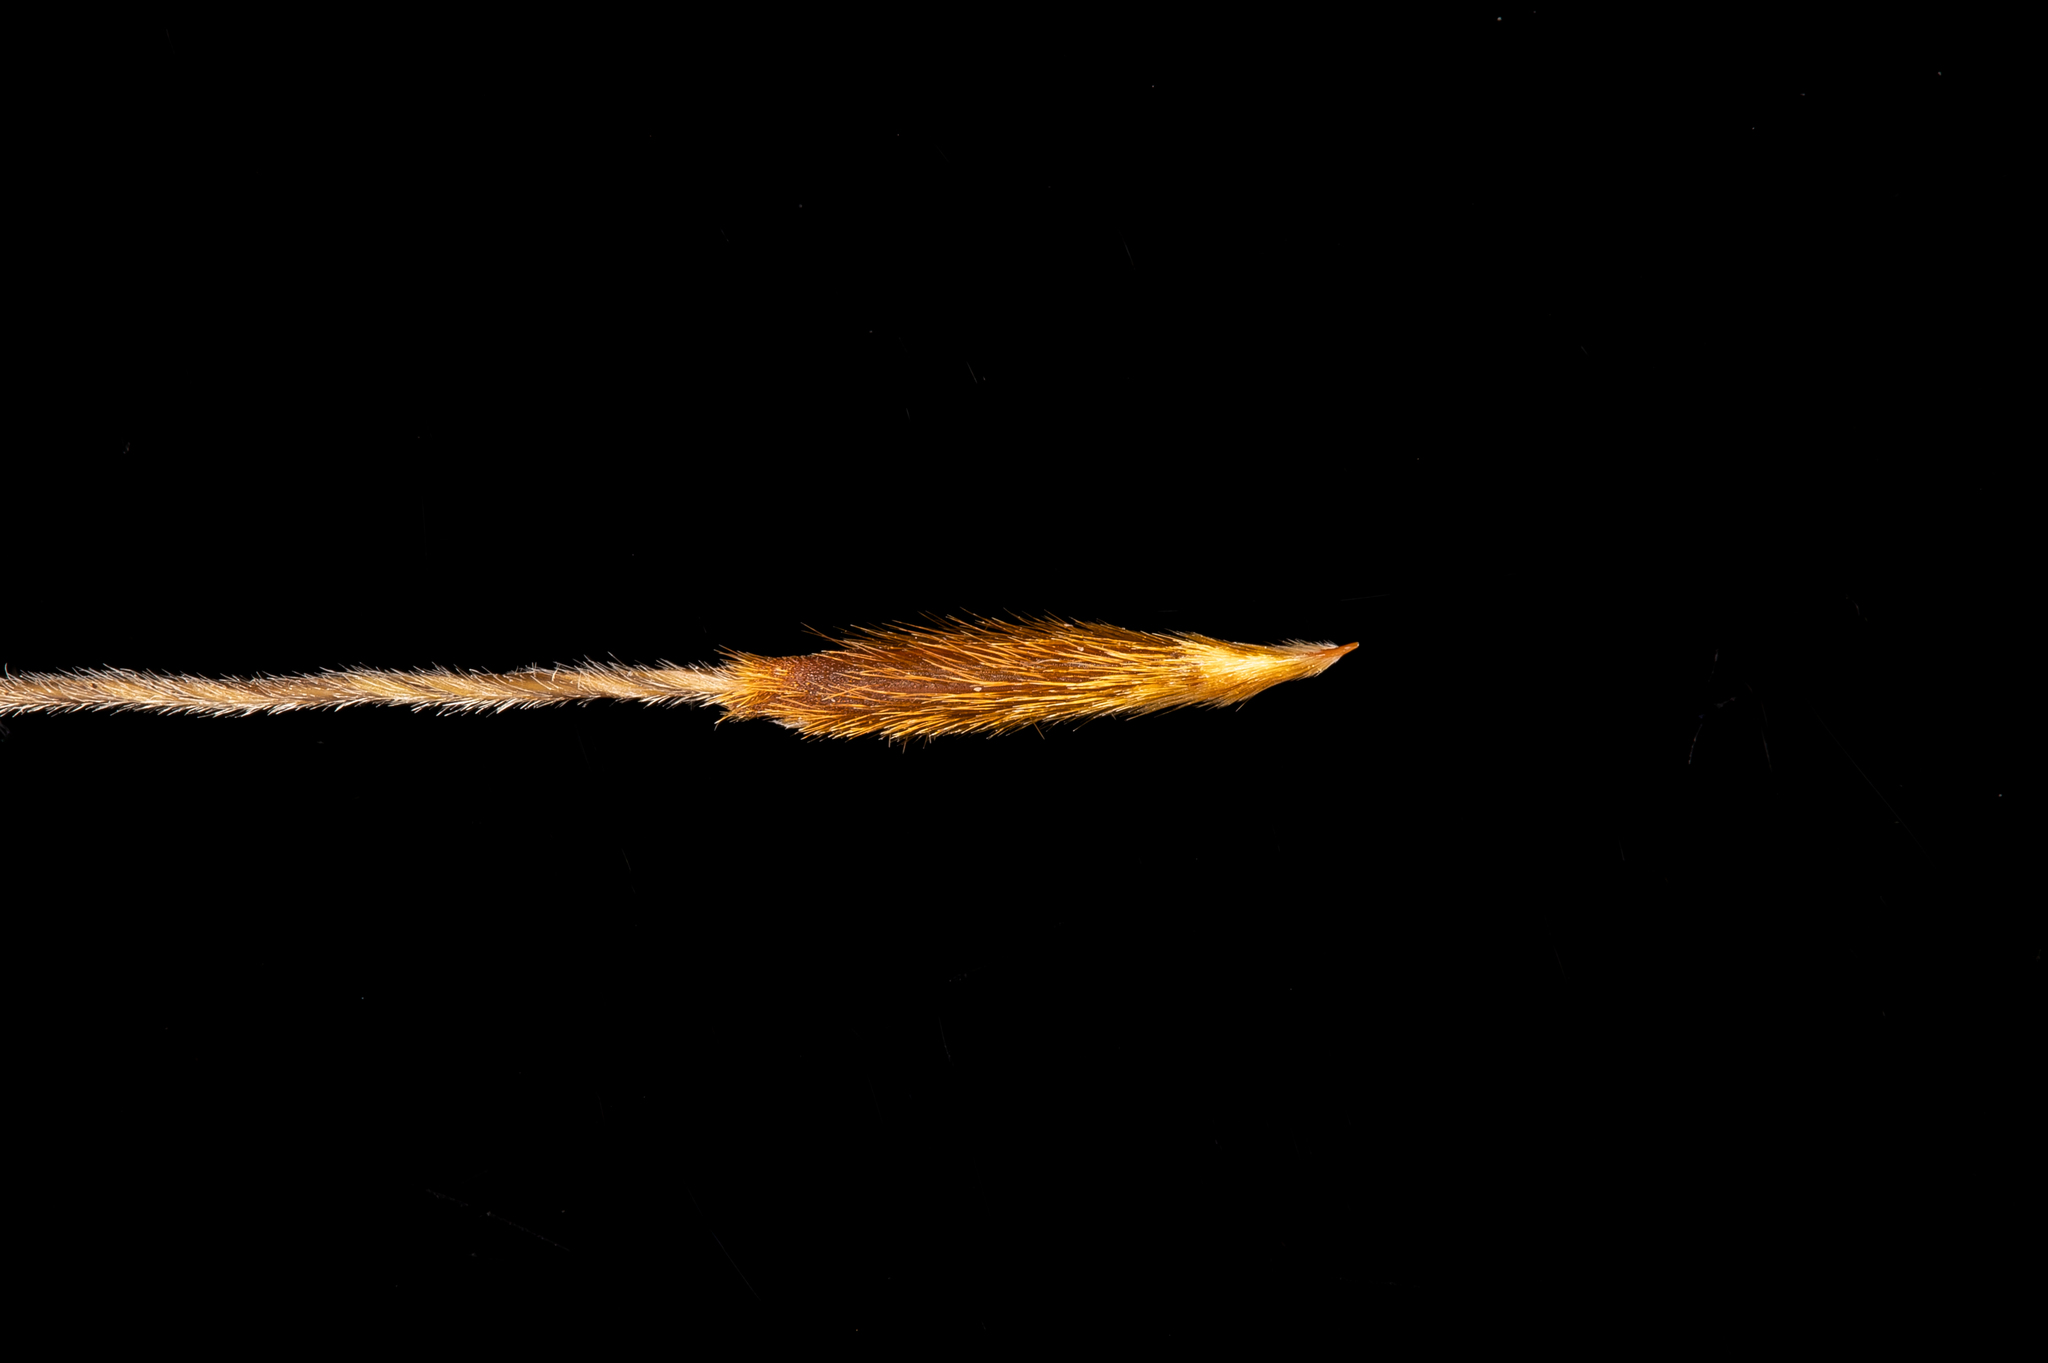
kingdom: Plantae
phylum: Tracheophyta
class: Liliopsida
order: Poales
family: Poaceae
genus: Austrostipa
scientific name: Austrostipa flavescens
